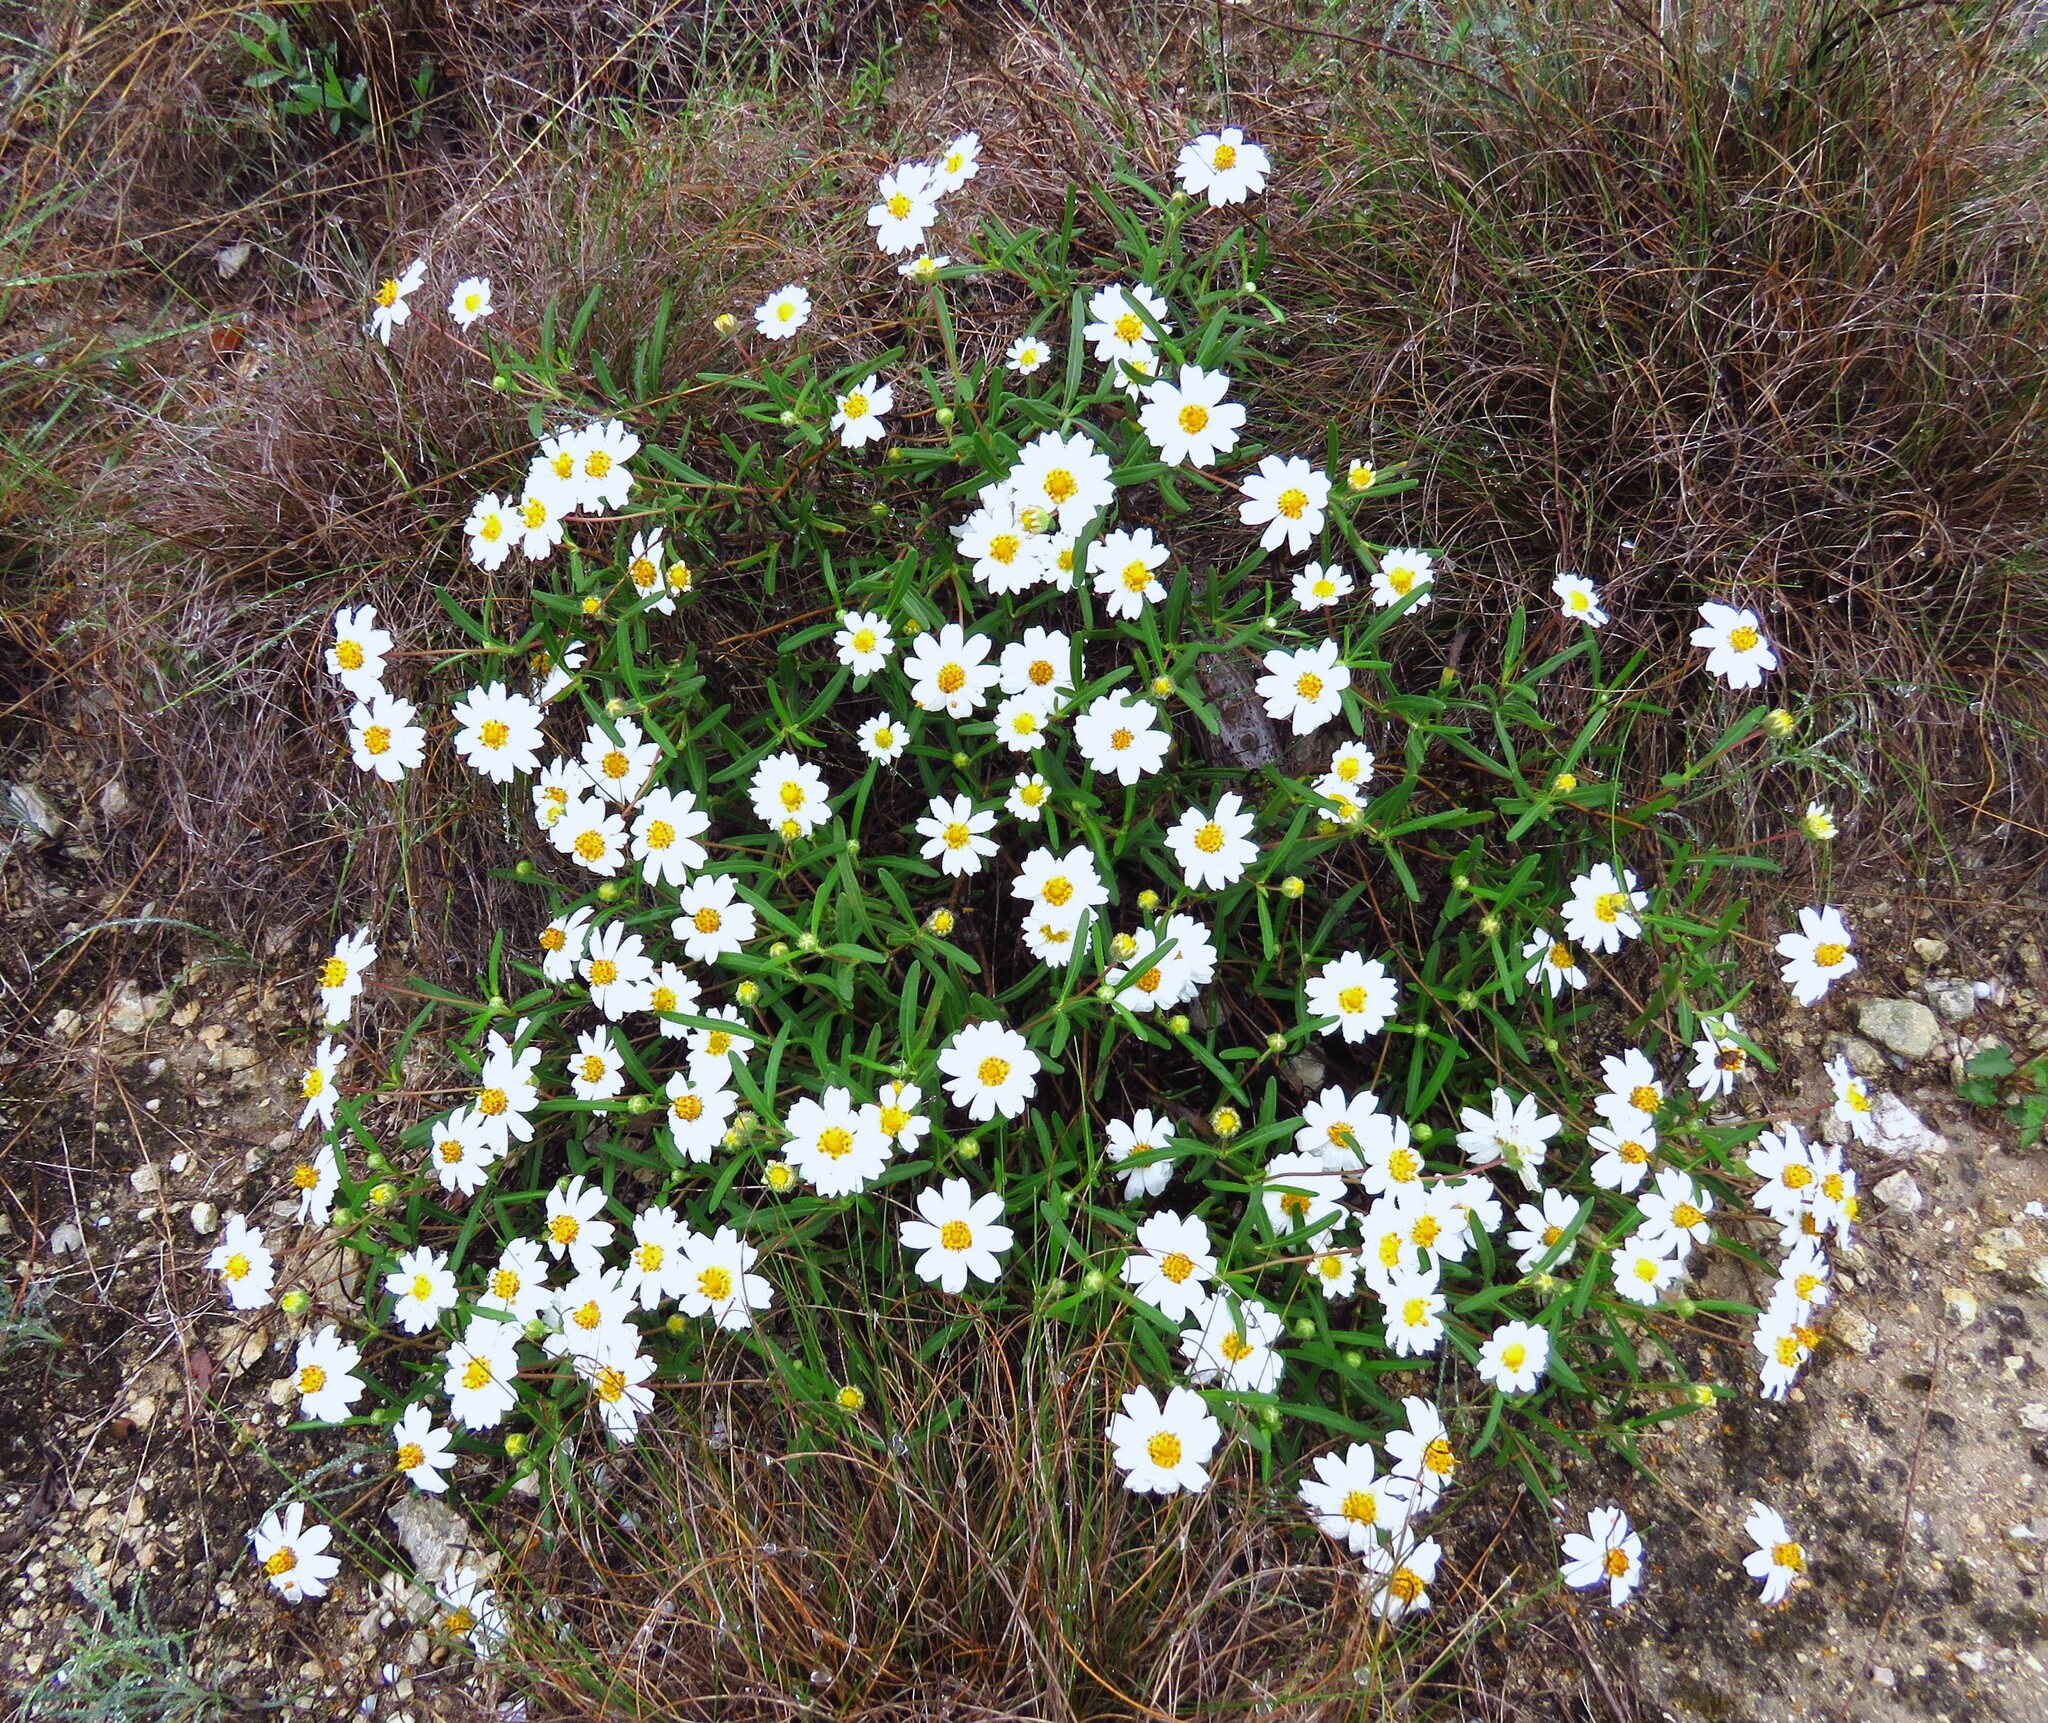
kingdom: Plantae
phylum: Tracheophyta
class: Magnoliopsida
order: Asterales
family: Asteraceae
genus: Melampodium
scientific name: Melampodium leucanthum
